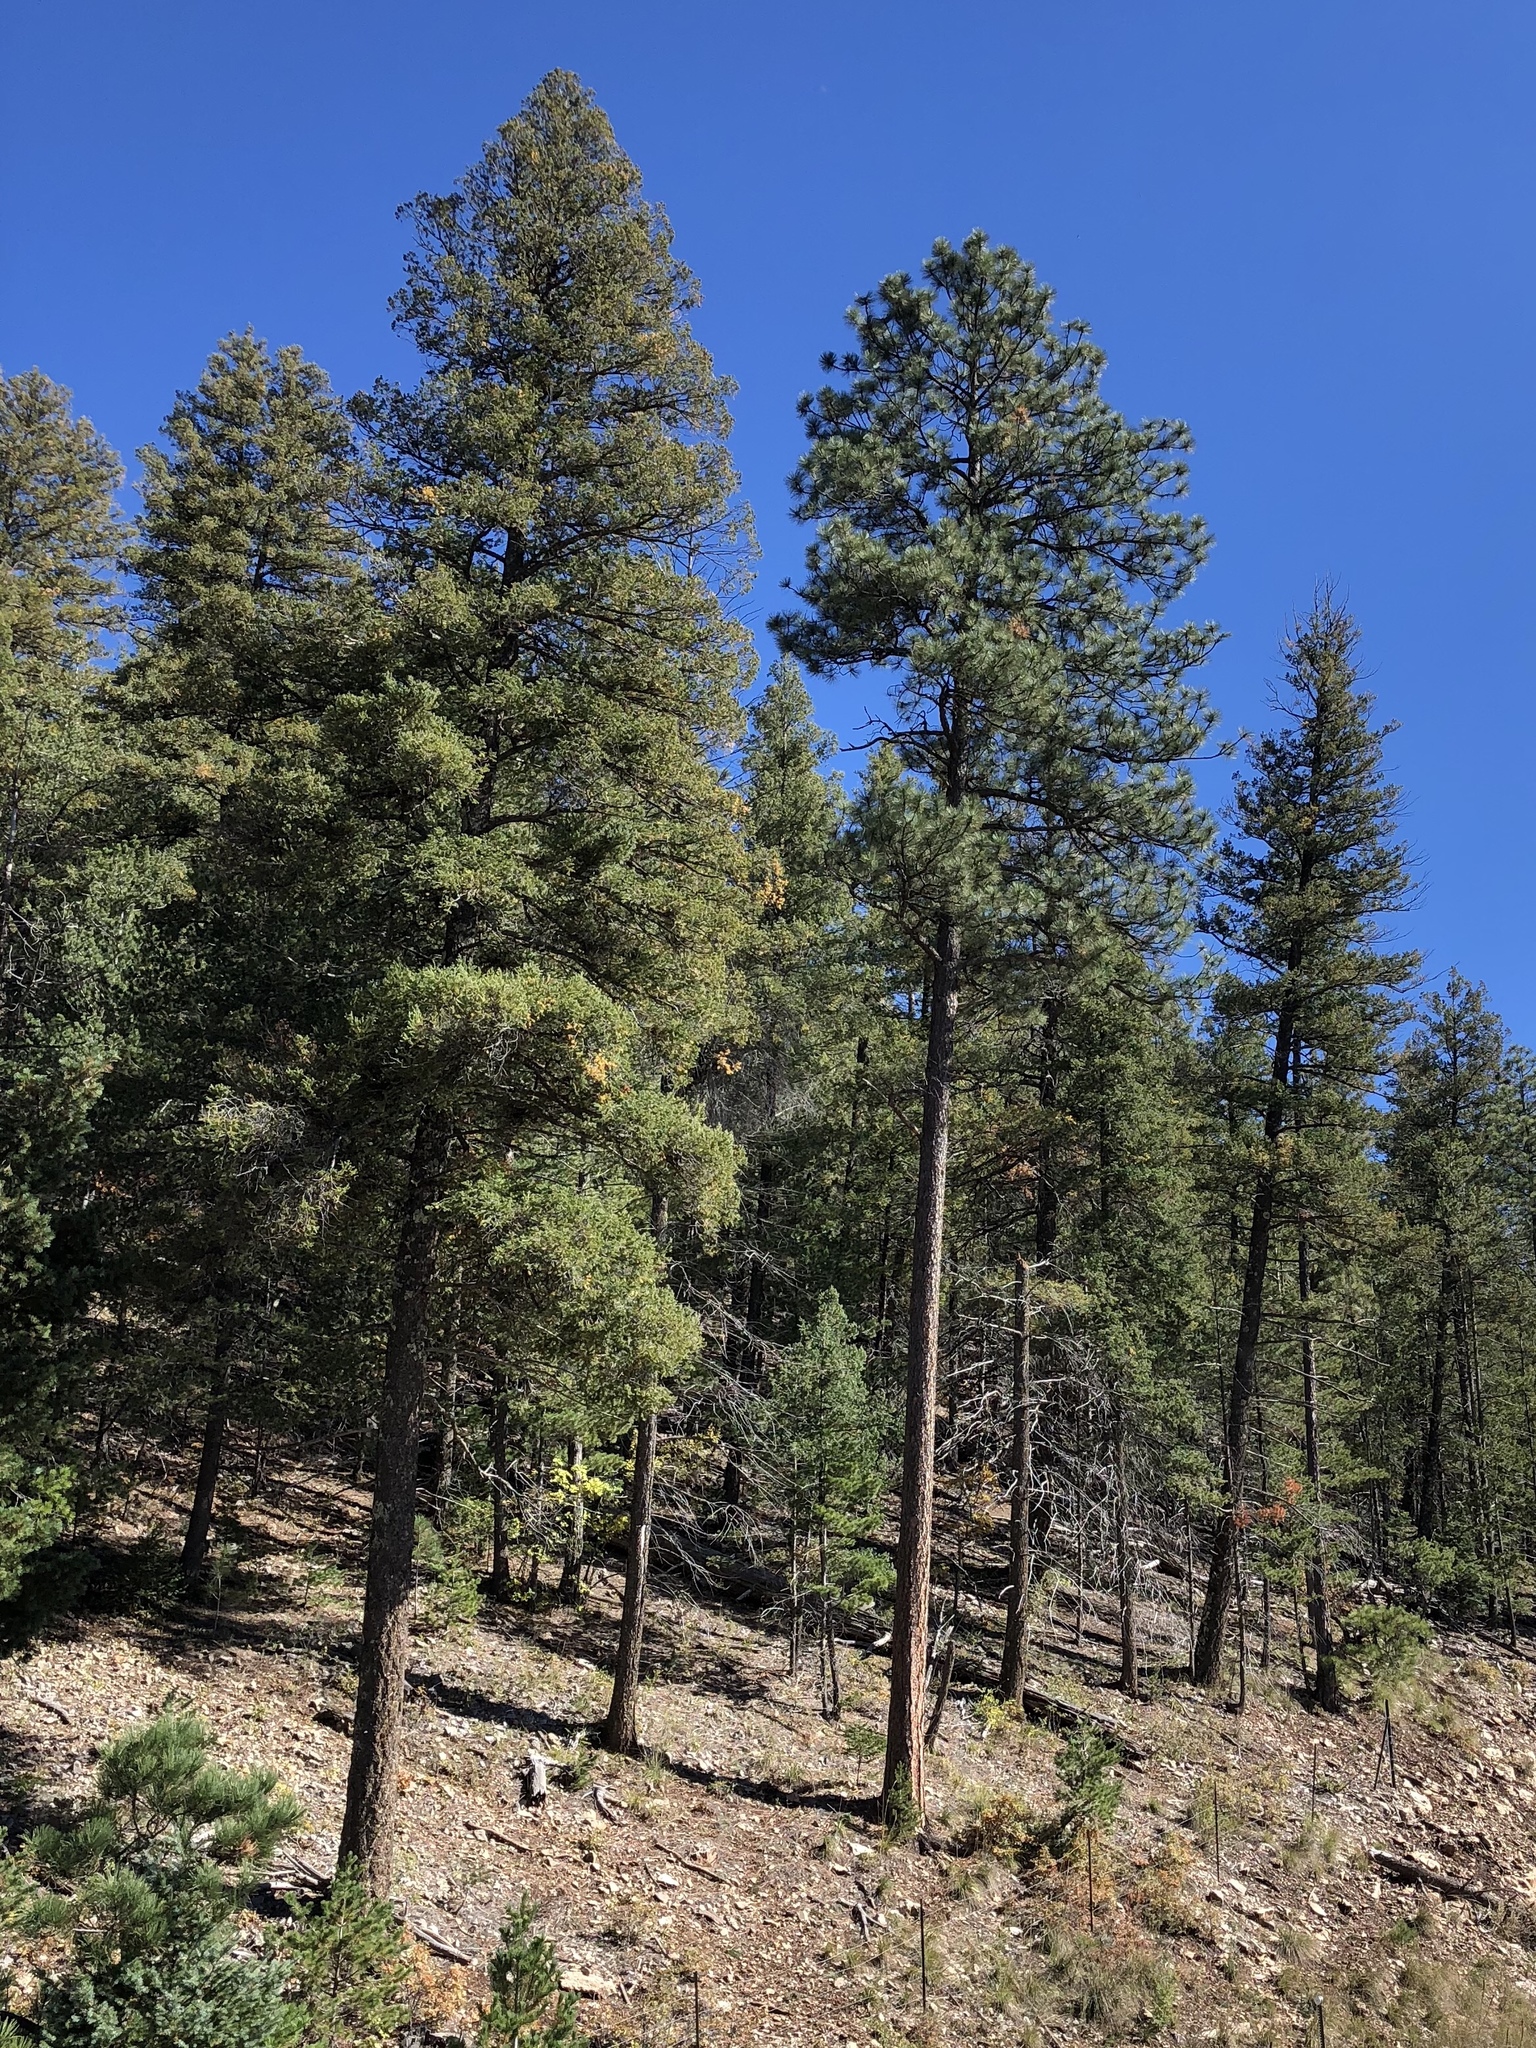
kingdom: Plantae
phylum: Tracheophyta
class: Pinopsida
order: Pinales
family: Pinaceae
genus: Pinus
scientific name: Pinus ponderosa
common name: Western yellow-pine
